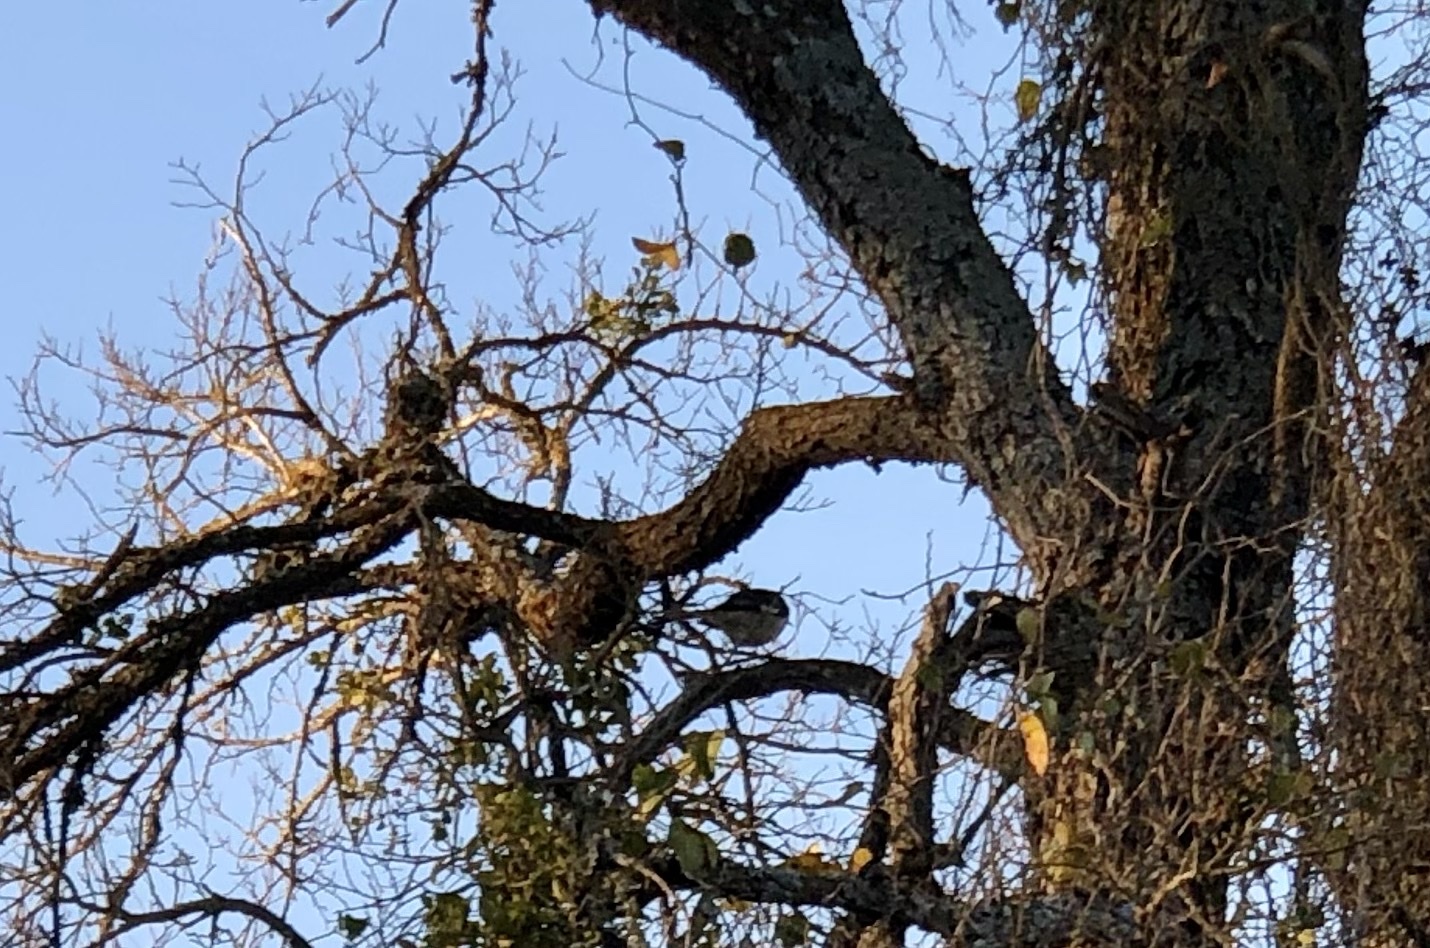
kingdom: Animalia
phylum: Chordata
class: Aves
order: Passeriformes
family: Mimidae
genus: Mimus
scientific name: Mimus polyglottos
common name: Northern mockingbird
